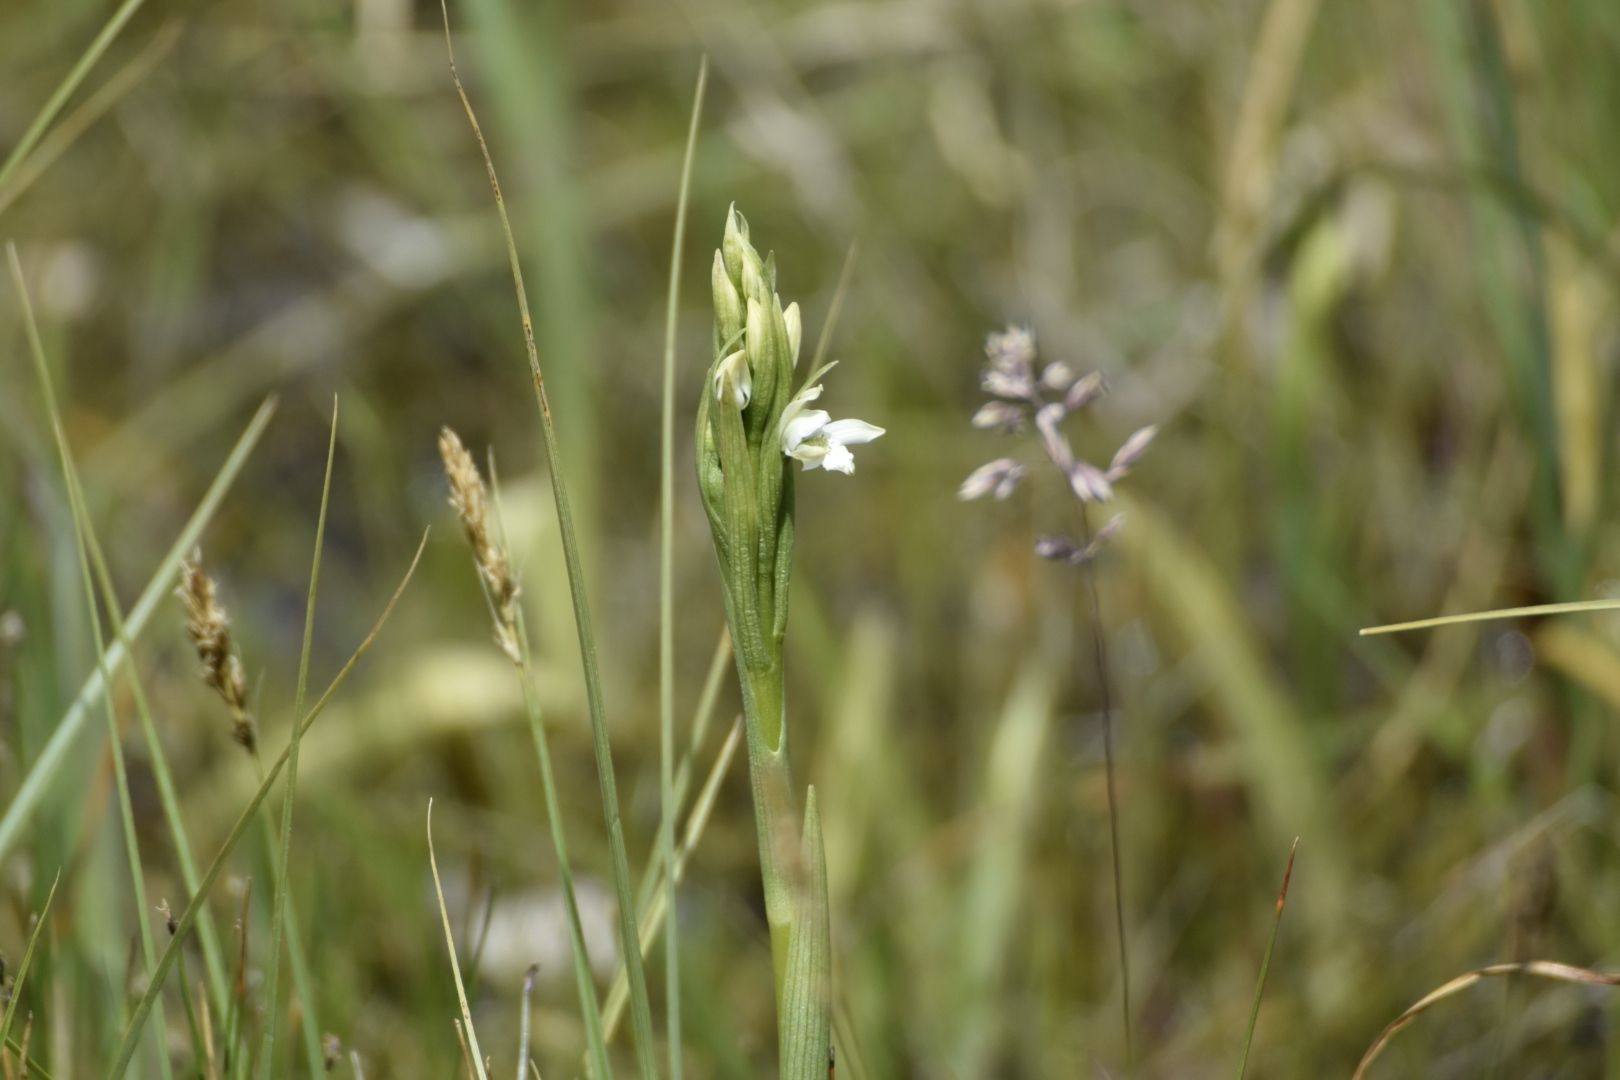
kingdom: Plantae
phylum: Tracheophyta
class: Liliopsida
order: Asparagales
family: Orchidaceae
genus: Gavilea
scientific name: Gavilea chica
